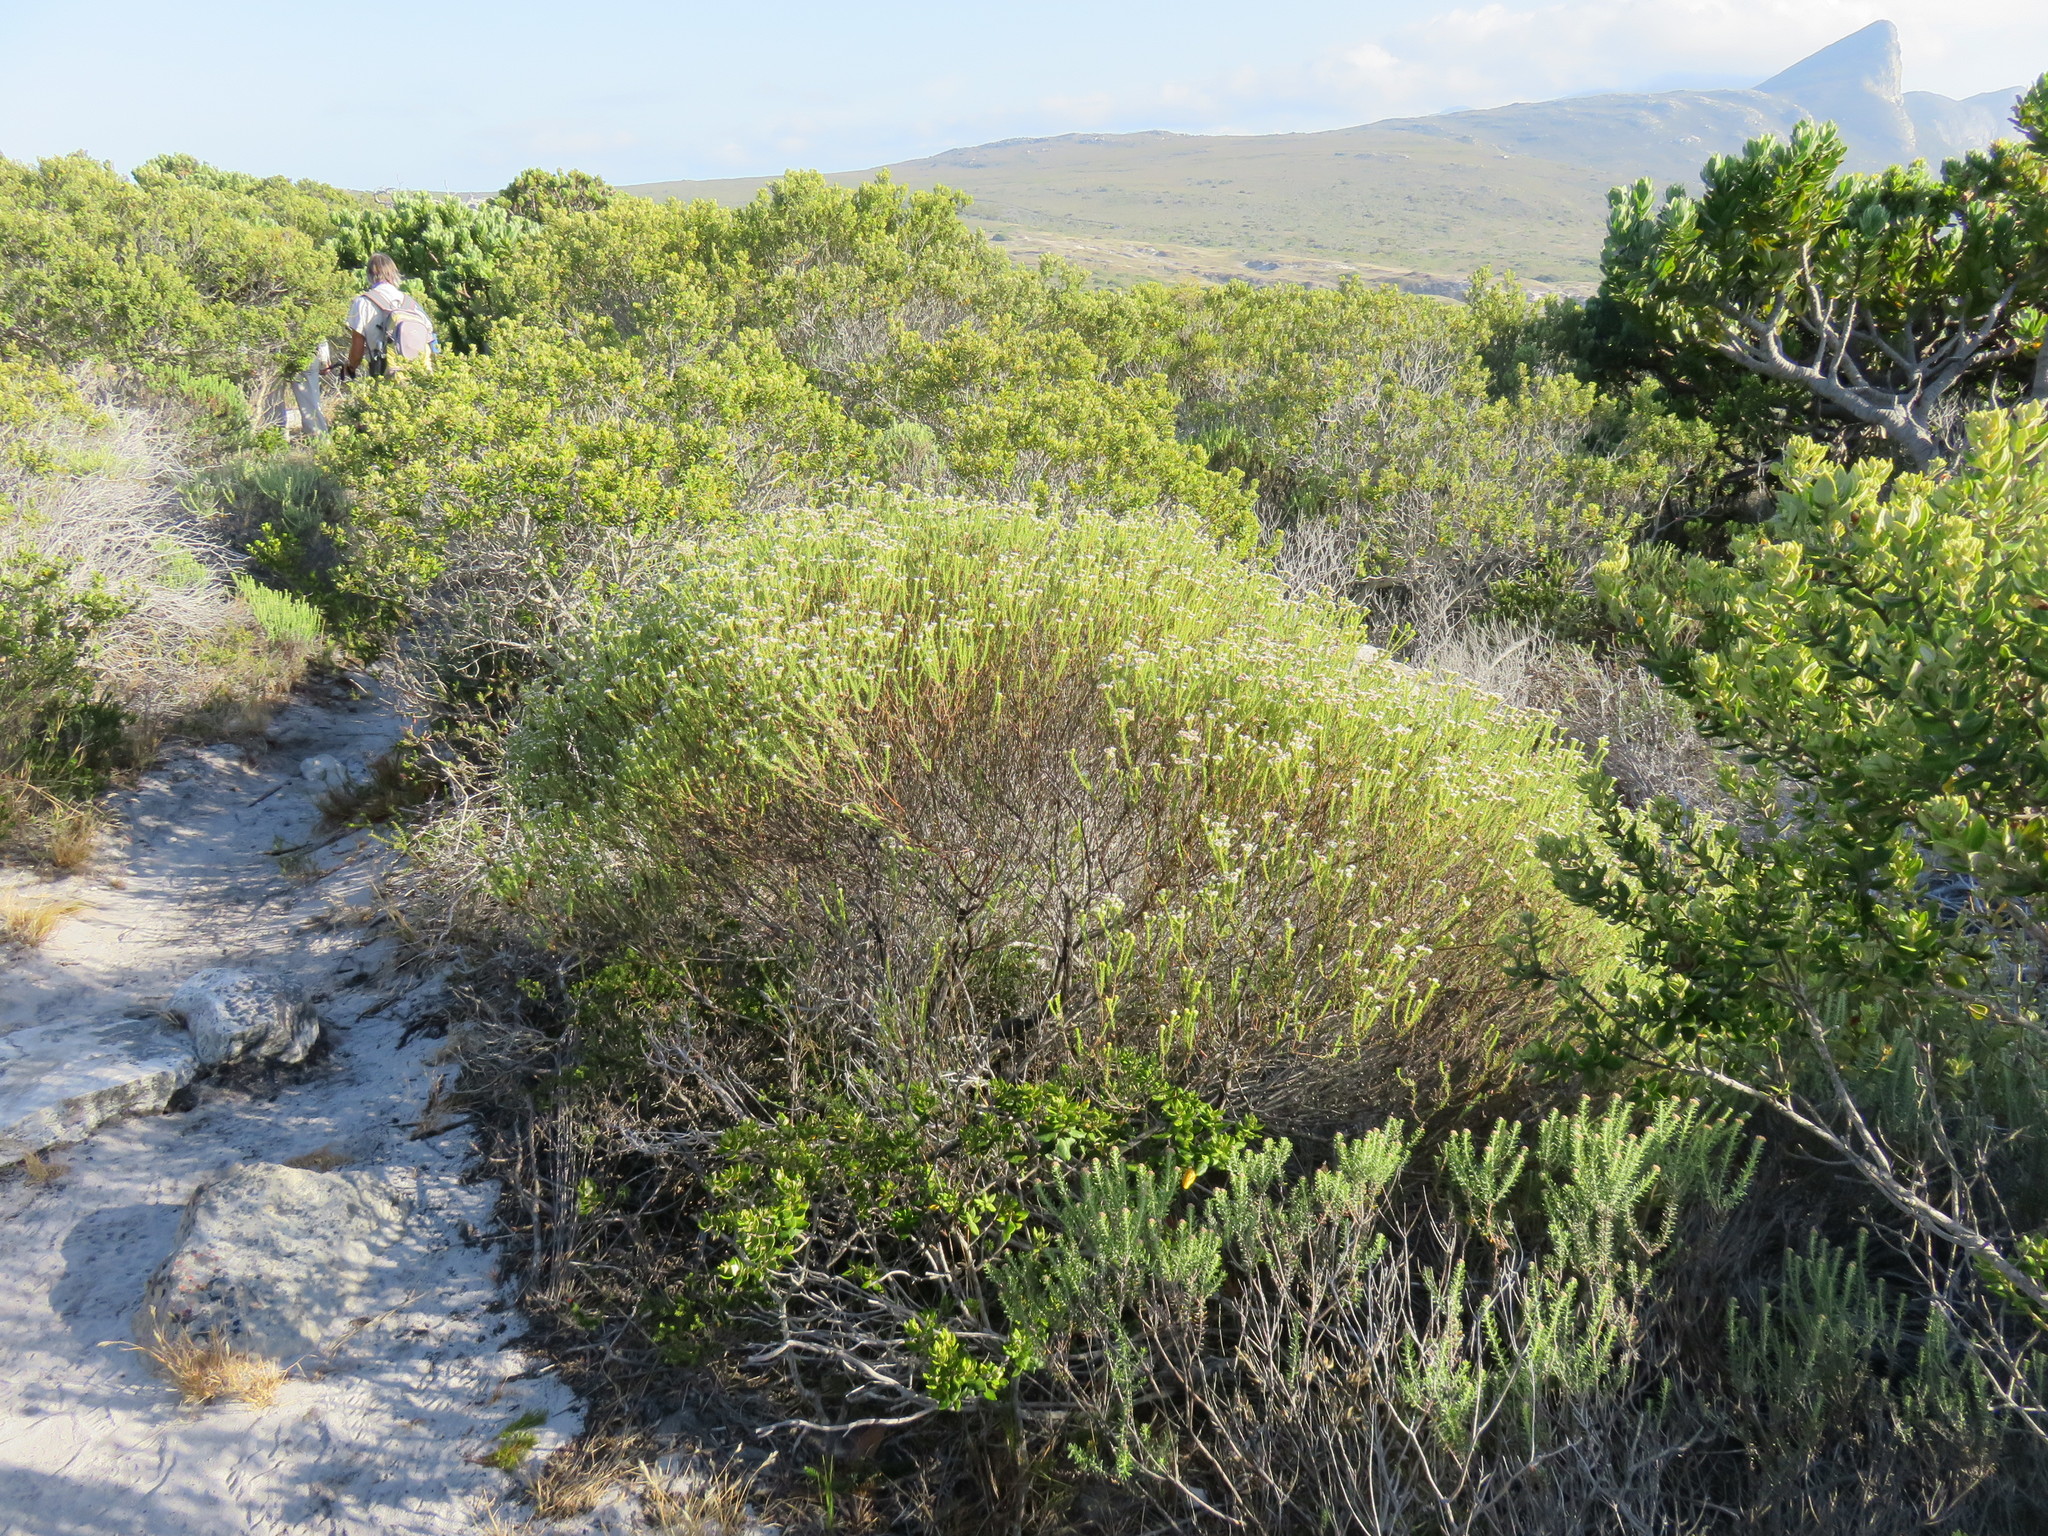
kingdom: Plantae
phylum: Tracheophyta
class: Magnoliopsida
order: Bruniales
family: Bruniaceae
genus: Staavia
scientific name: Staavia radiata
